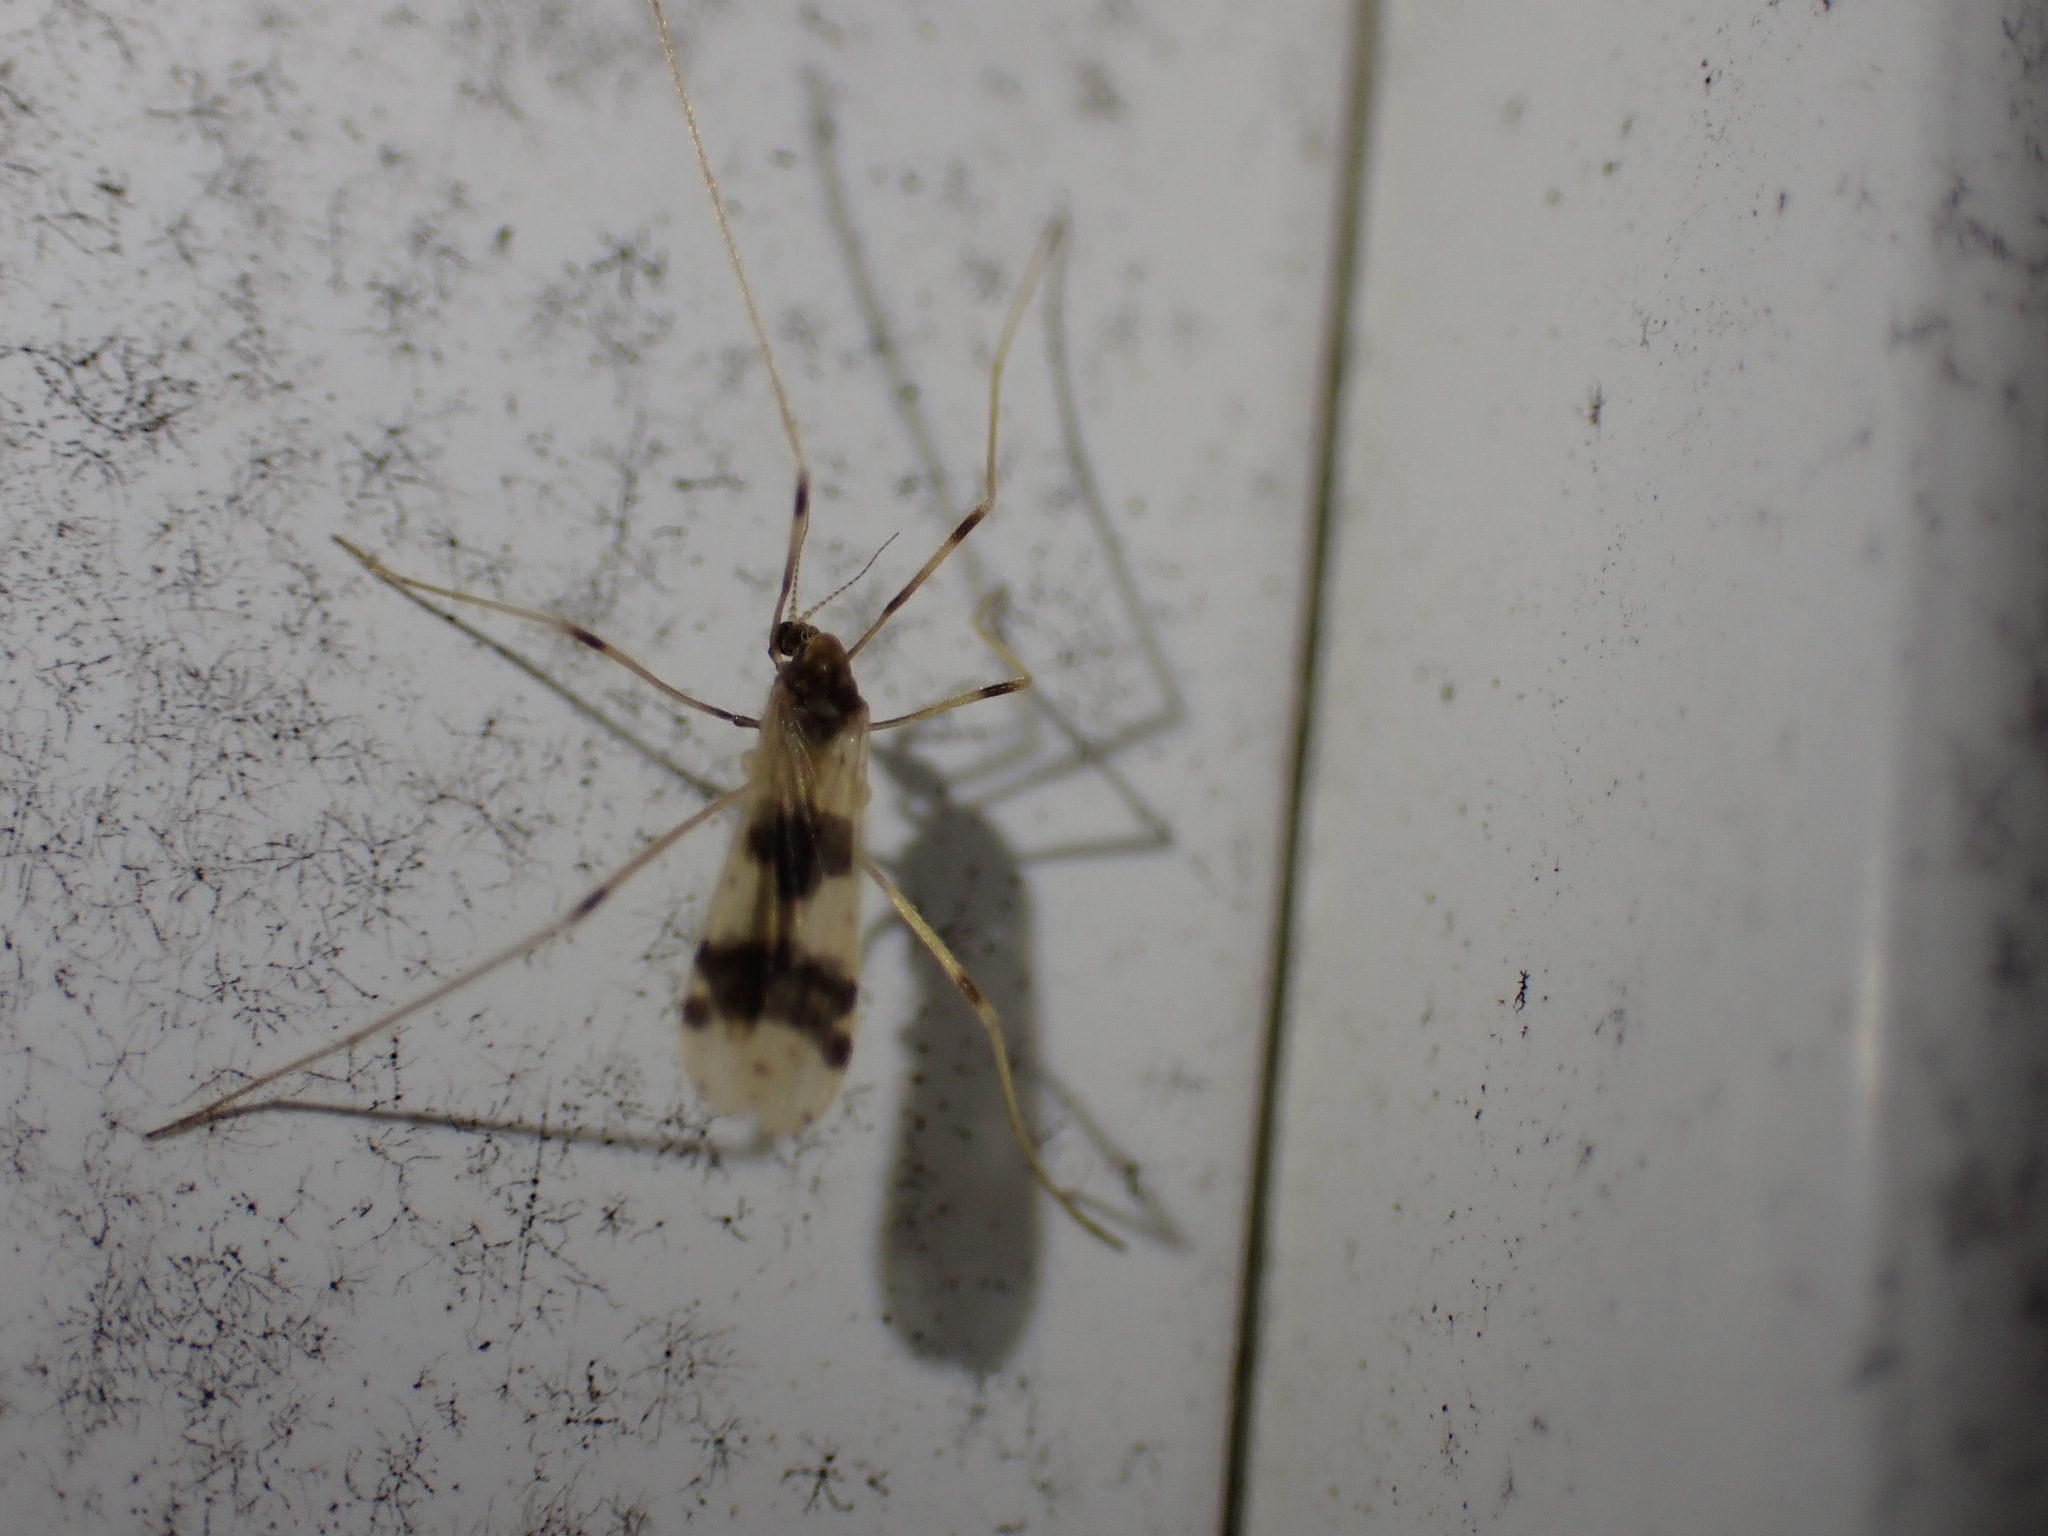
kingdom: Animalia
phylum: Arthropoda
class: Insecta
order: Diptera
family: Limoniidae
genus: Ilisia
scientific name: Ilisia venusta
